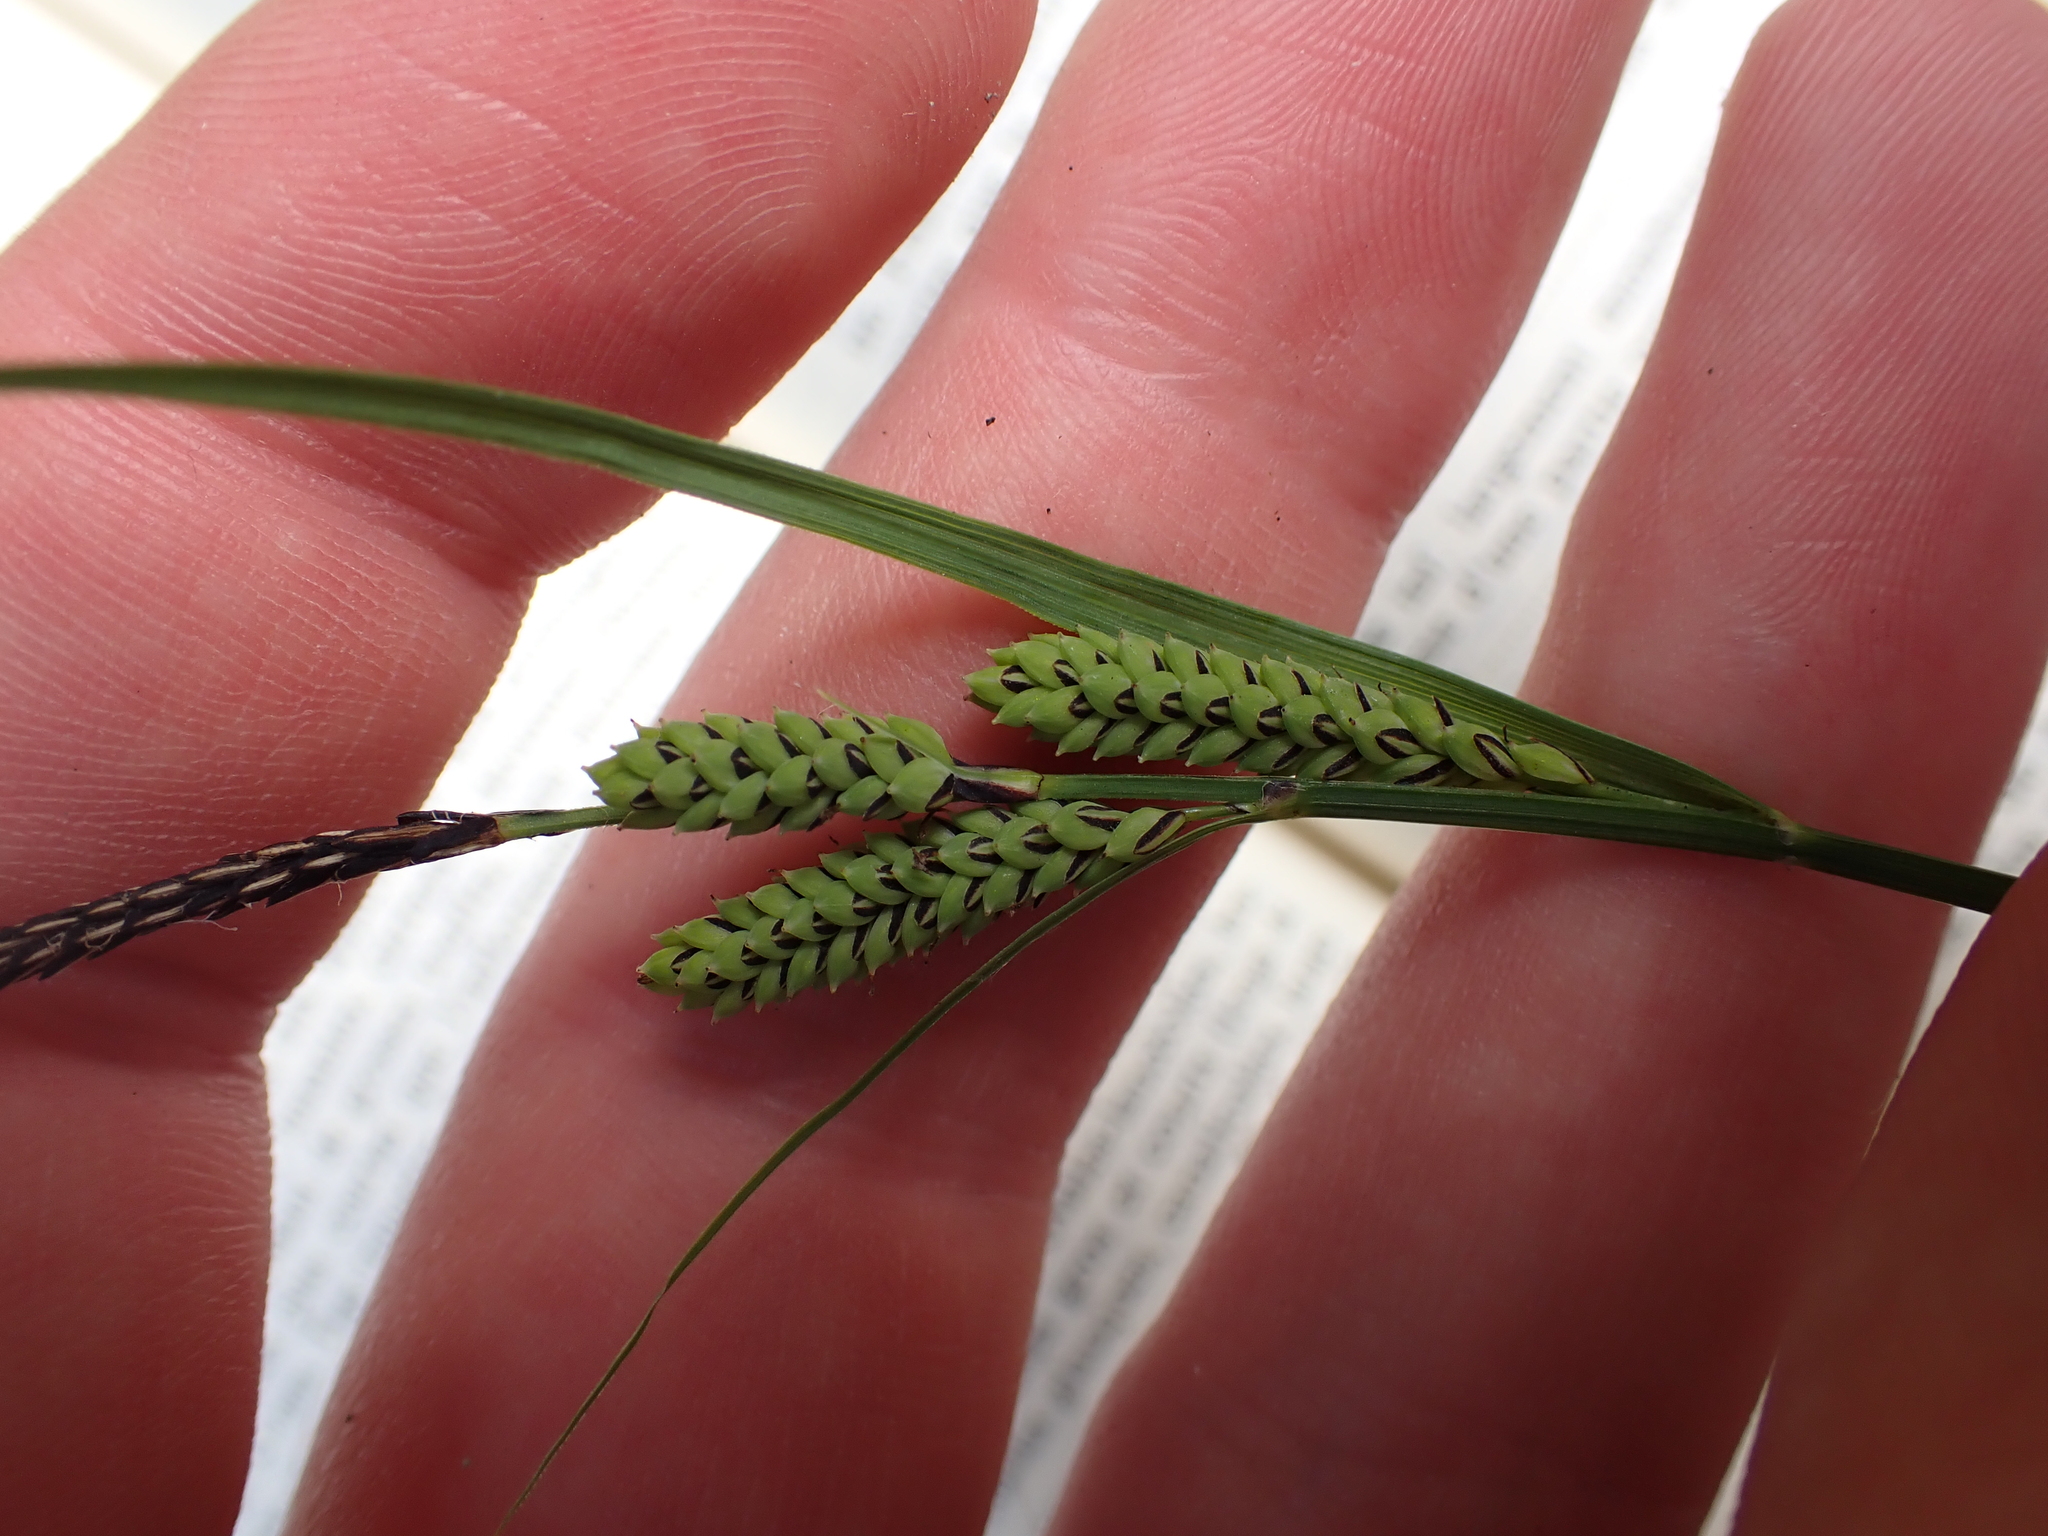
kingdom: Plantae
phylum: Tracheophyta
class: Liliopsida
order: Poales
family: Cyperaceae
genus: Carex
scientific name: Carex nigra
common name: Common sedge
